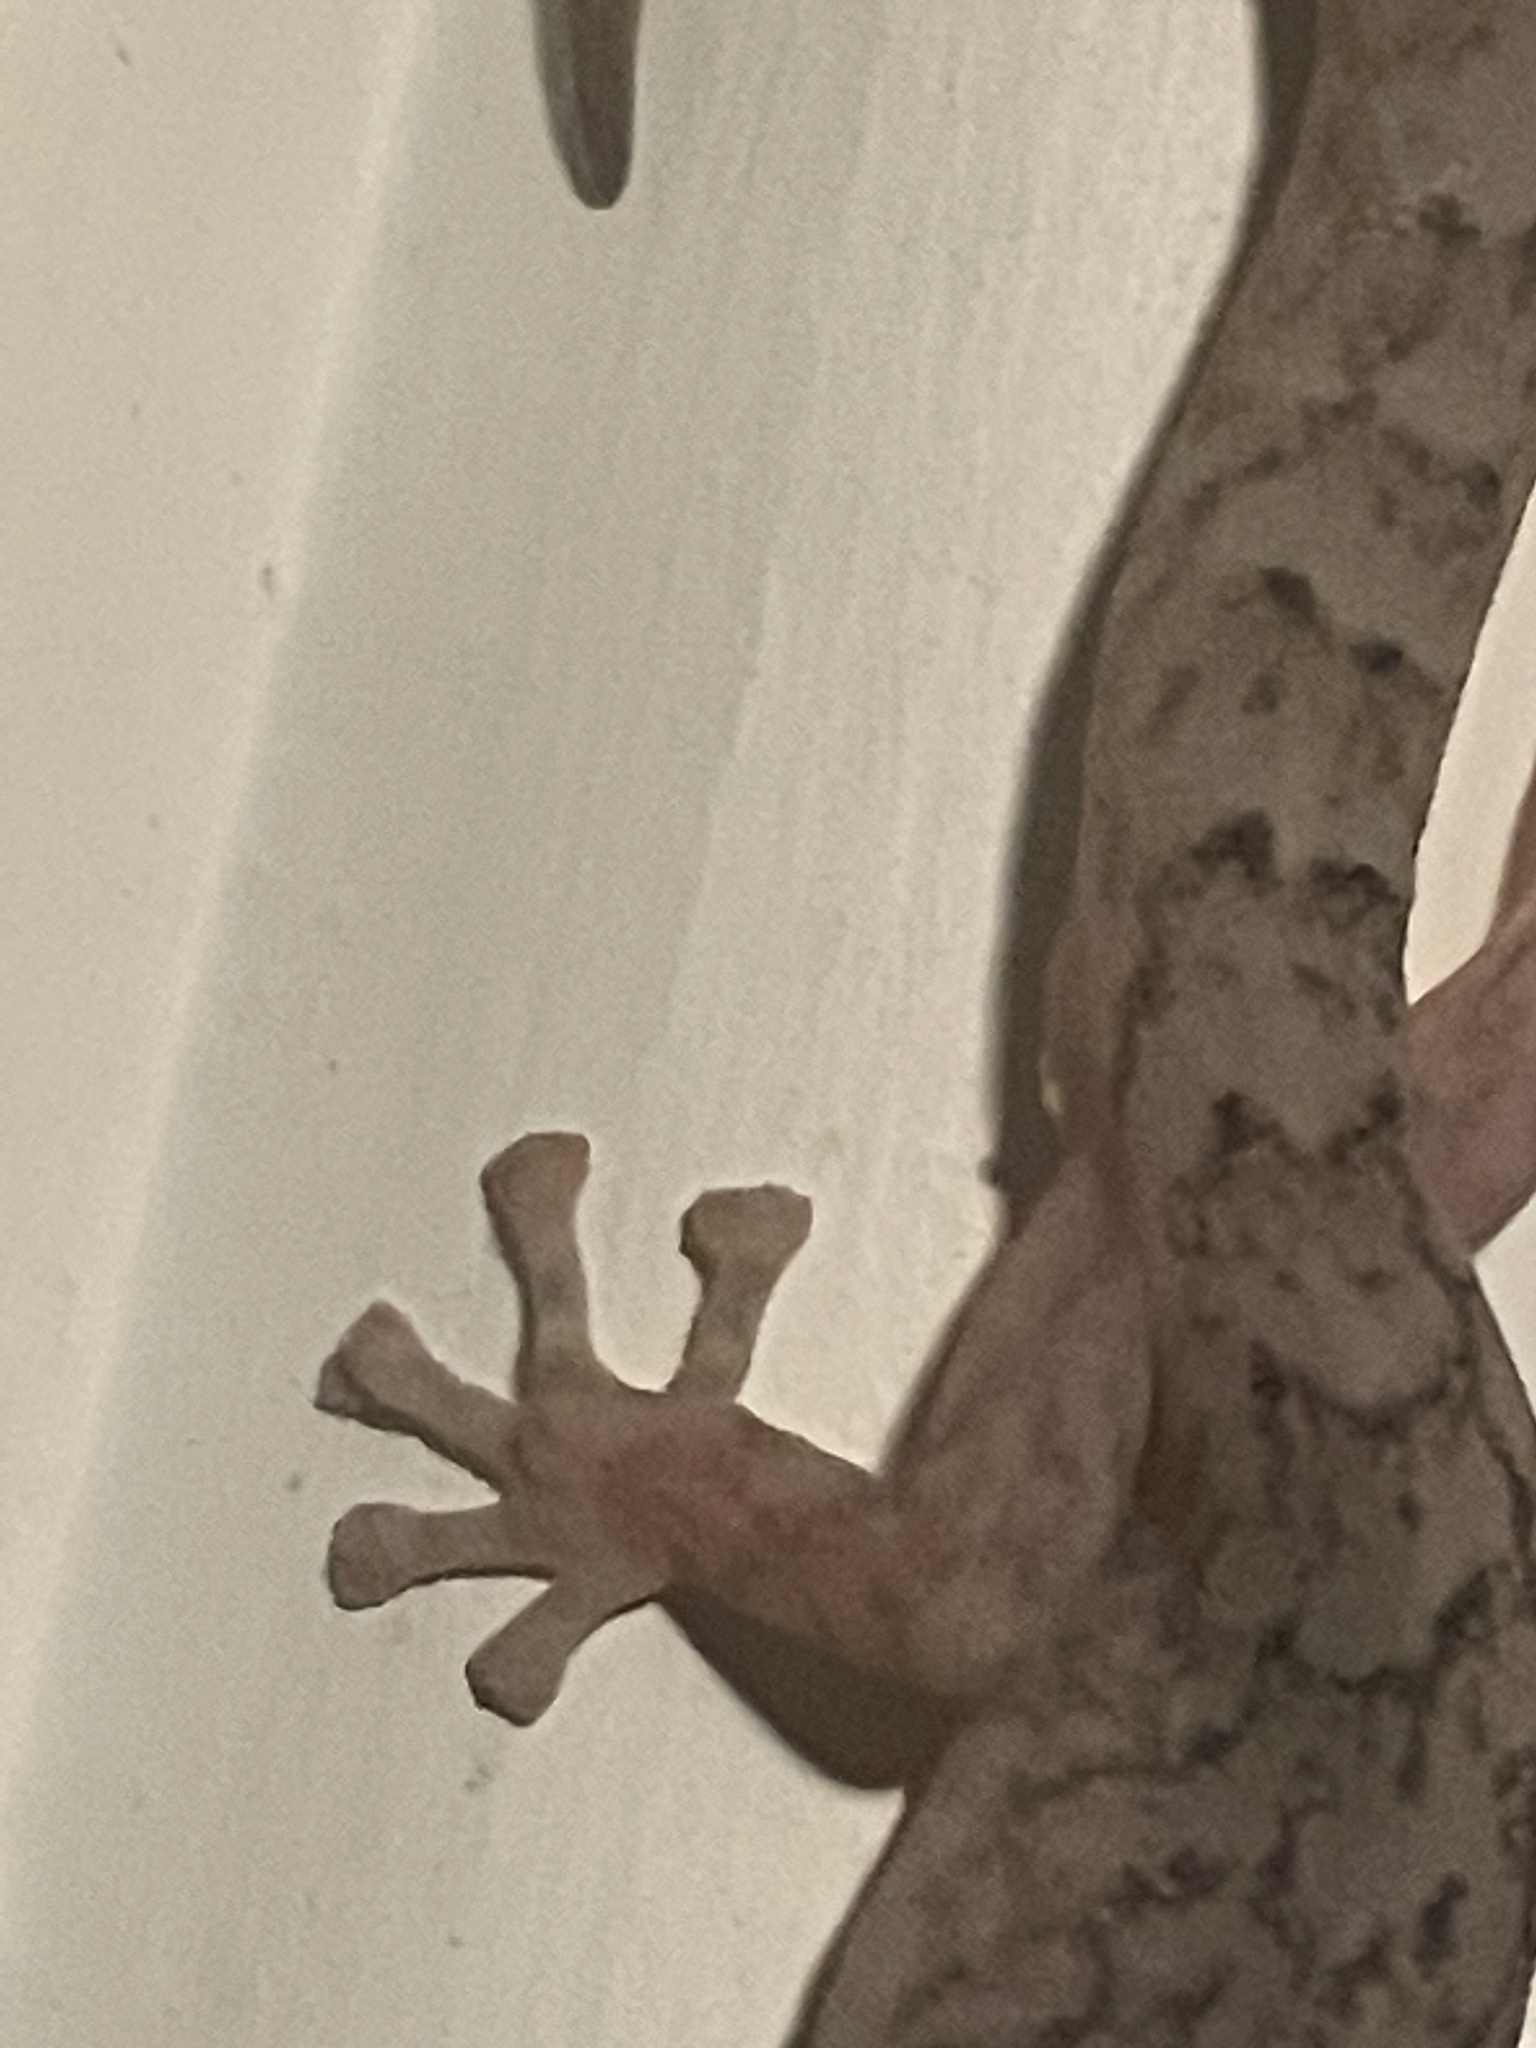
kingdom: Animalia
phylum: Chordata
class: Squamata
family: Gekkonidae
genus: Christinus
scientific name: Christinus marmoratus
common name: Marbled gecko
